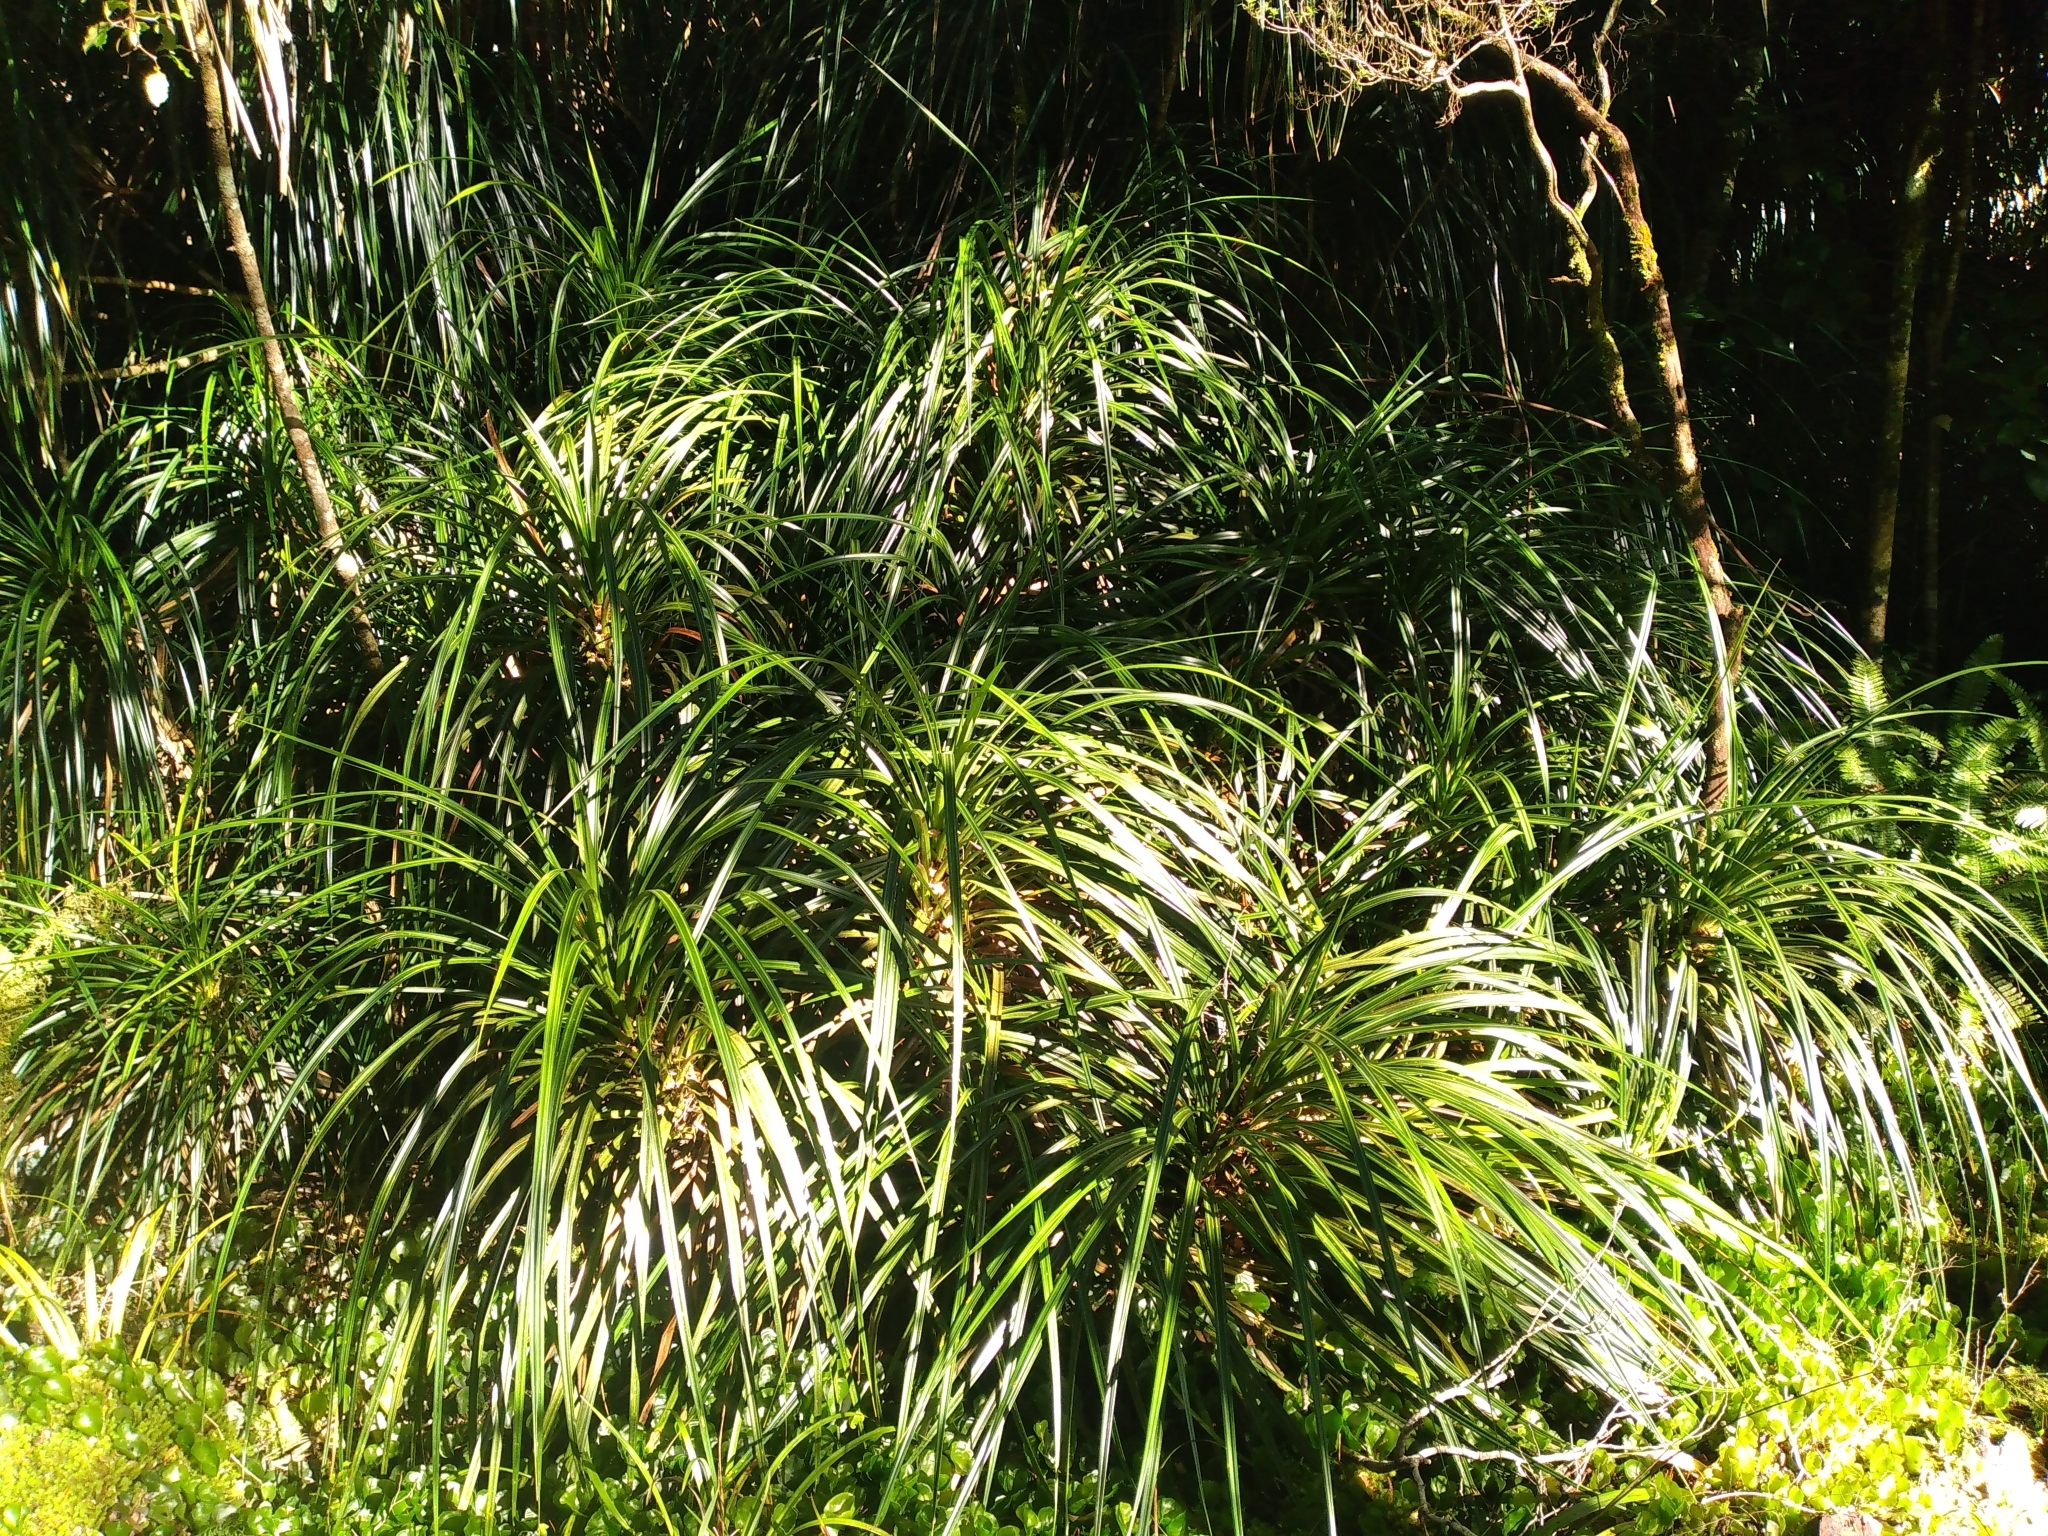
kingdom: Plantae
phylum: Tracheophyta
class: Liliopsida
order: Pandanales
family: Pandanaceae
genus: Freycinetia
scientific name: Freycinetia banksii
